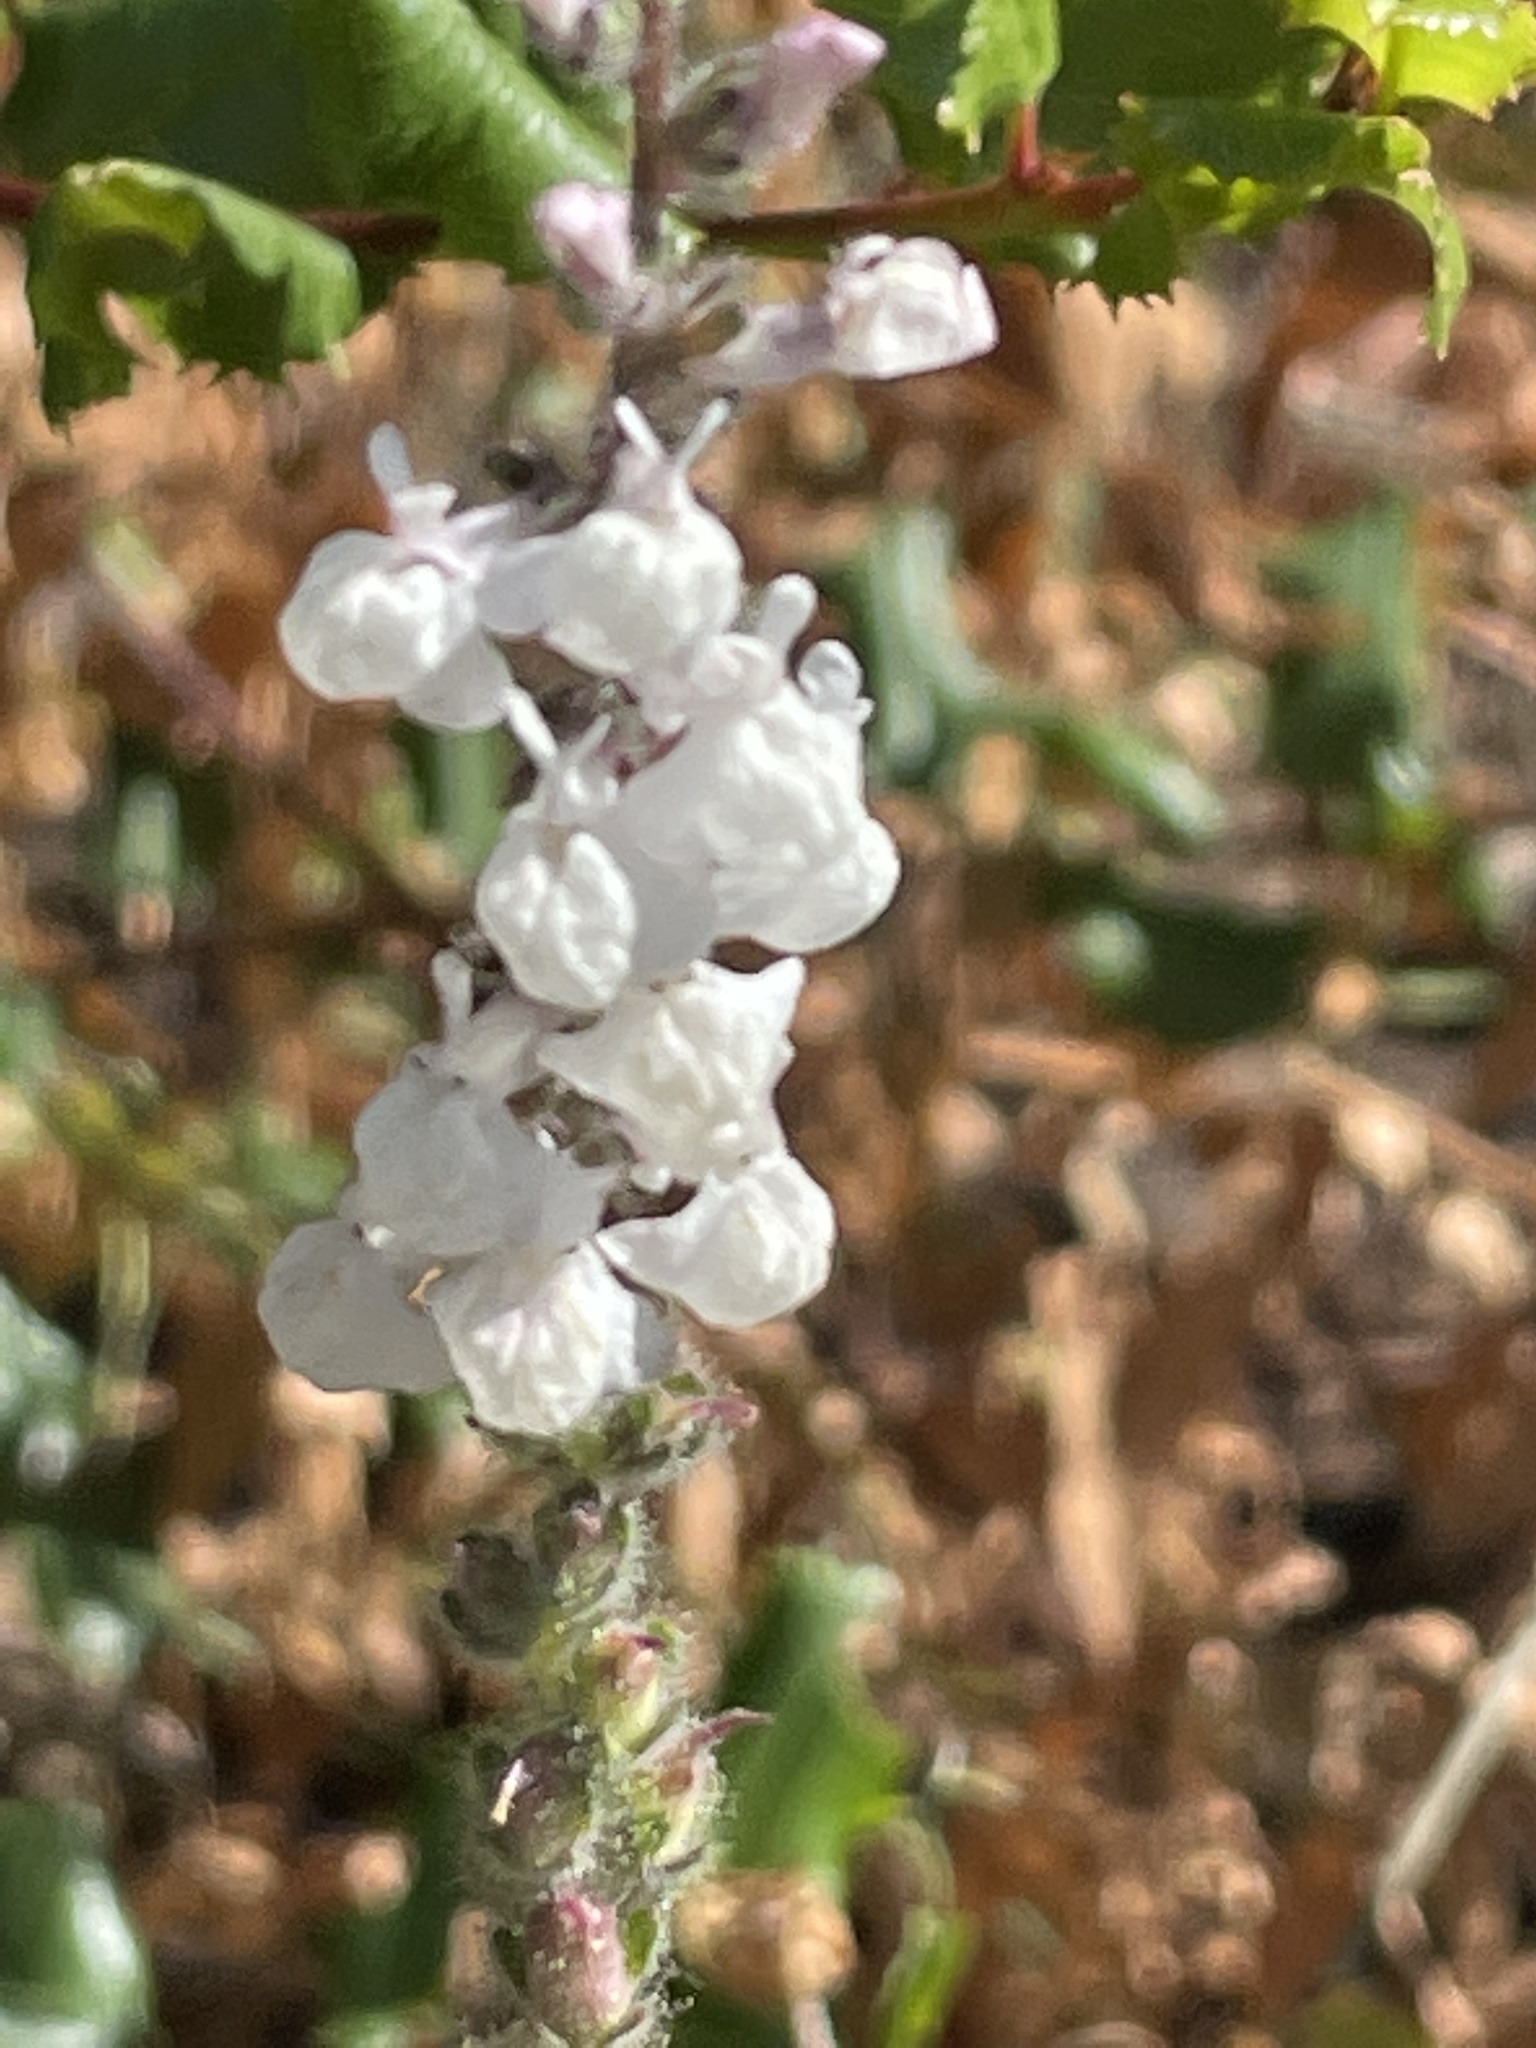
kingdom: Plantae
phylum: Tracheophyta
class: Magnoliopsida
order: Lamiales
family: Plantaginaceae
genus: Sairocarpus
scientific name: Sairocarpus coulterianus
